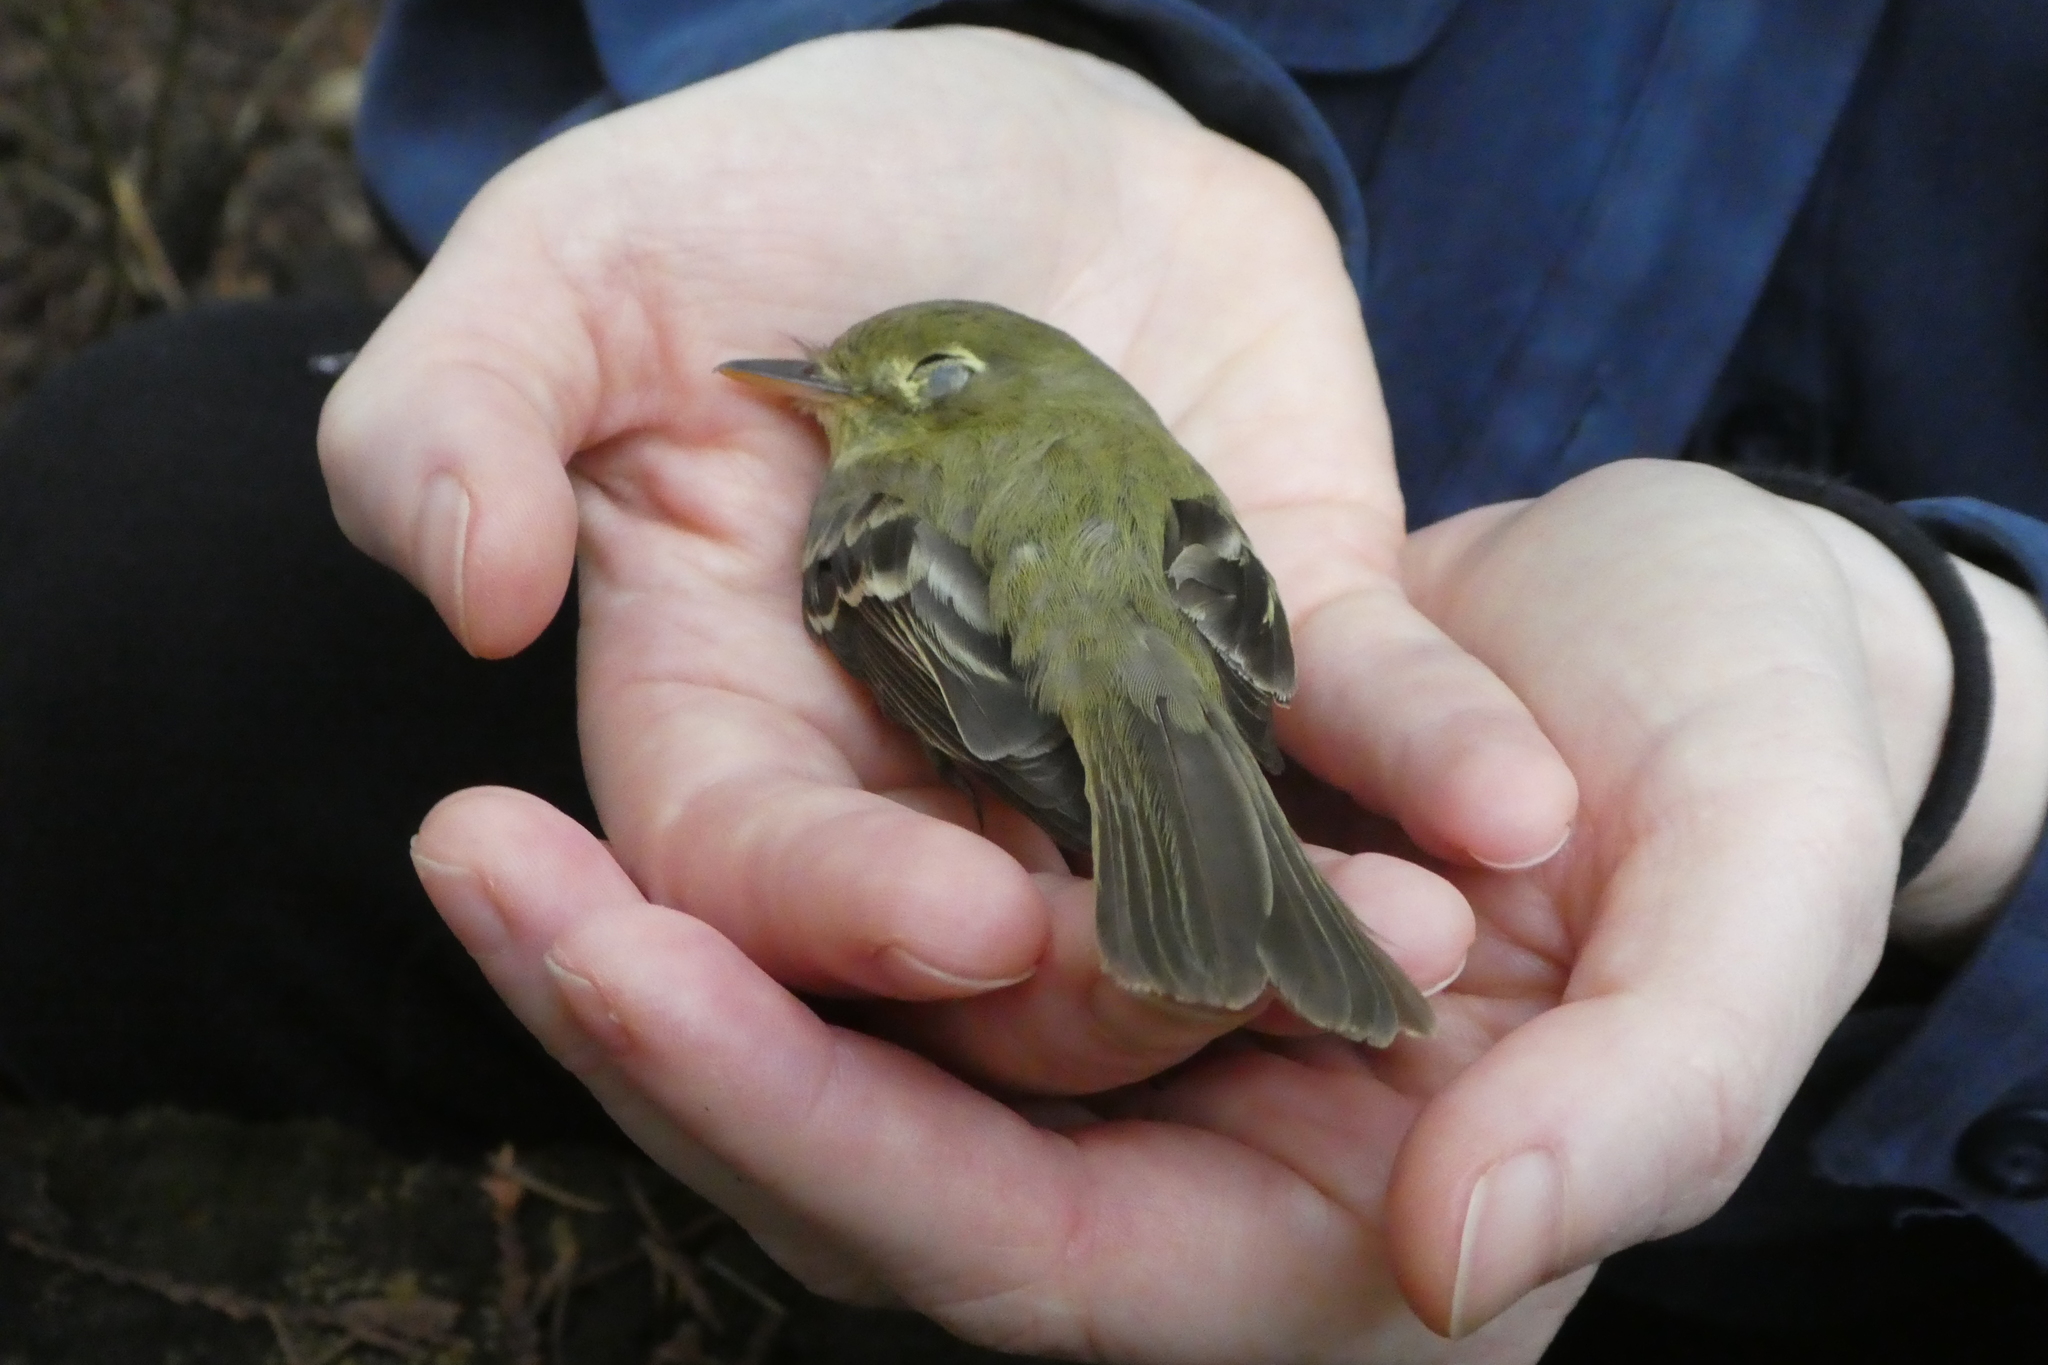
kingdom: Animalia
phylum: Chordata
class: Aves
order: Passeriformes
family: Tyrannidae
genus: Empidonax
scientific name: Empidonax difficilis
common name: Pacific-slope flycatcher
